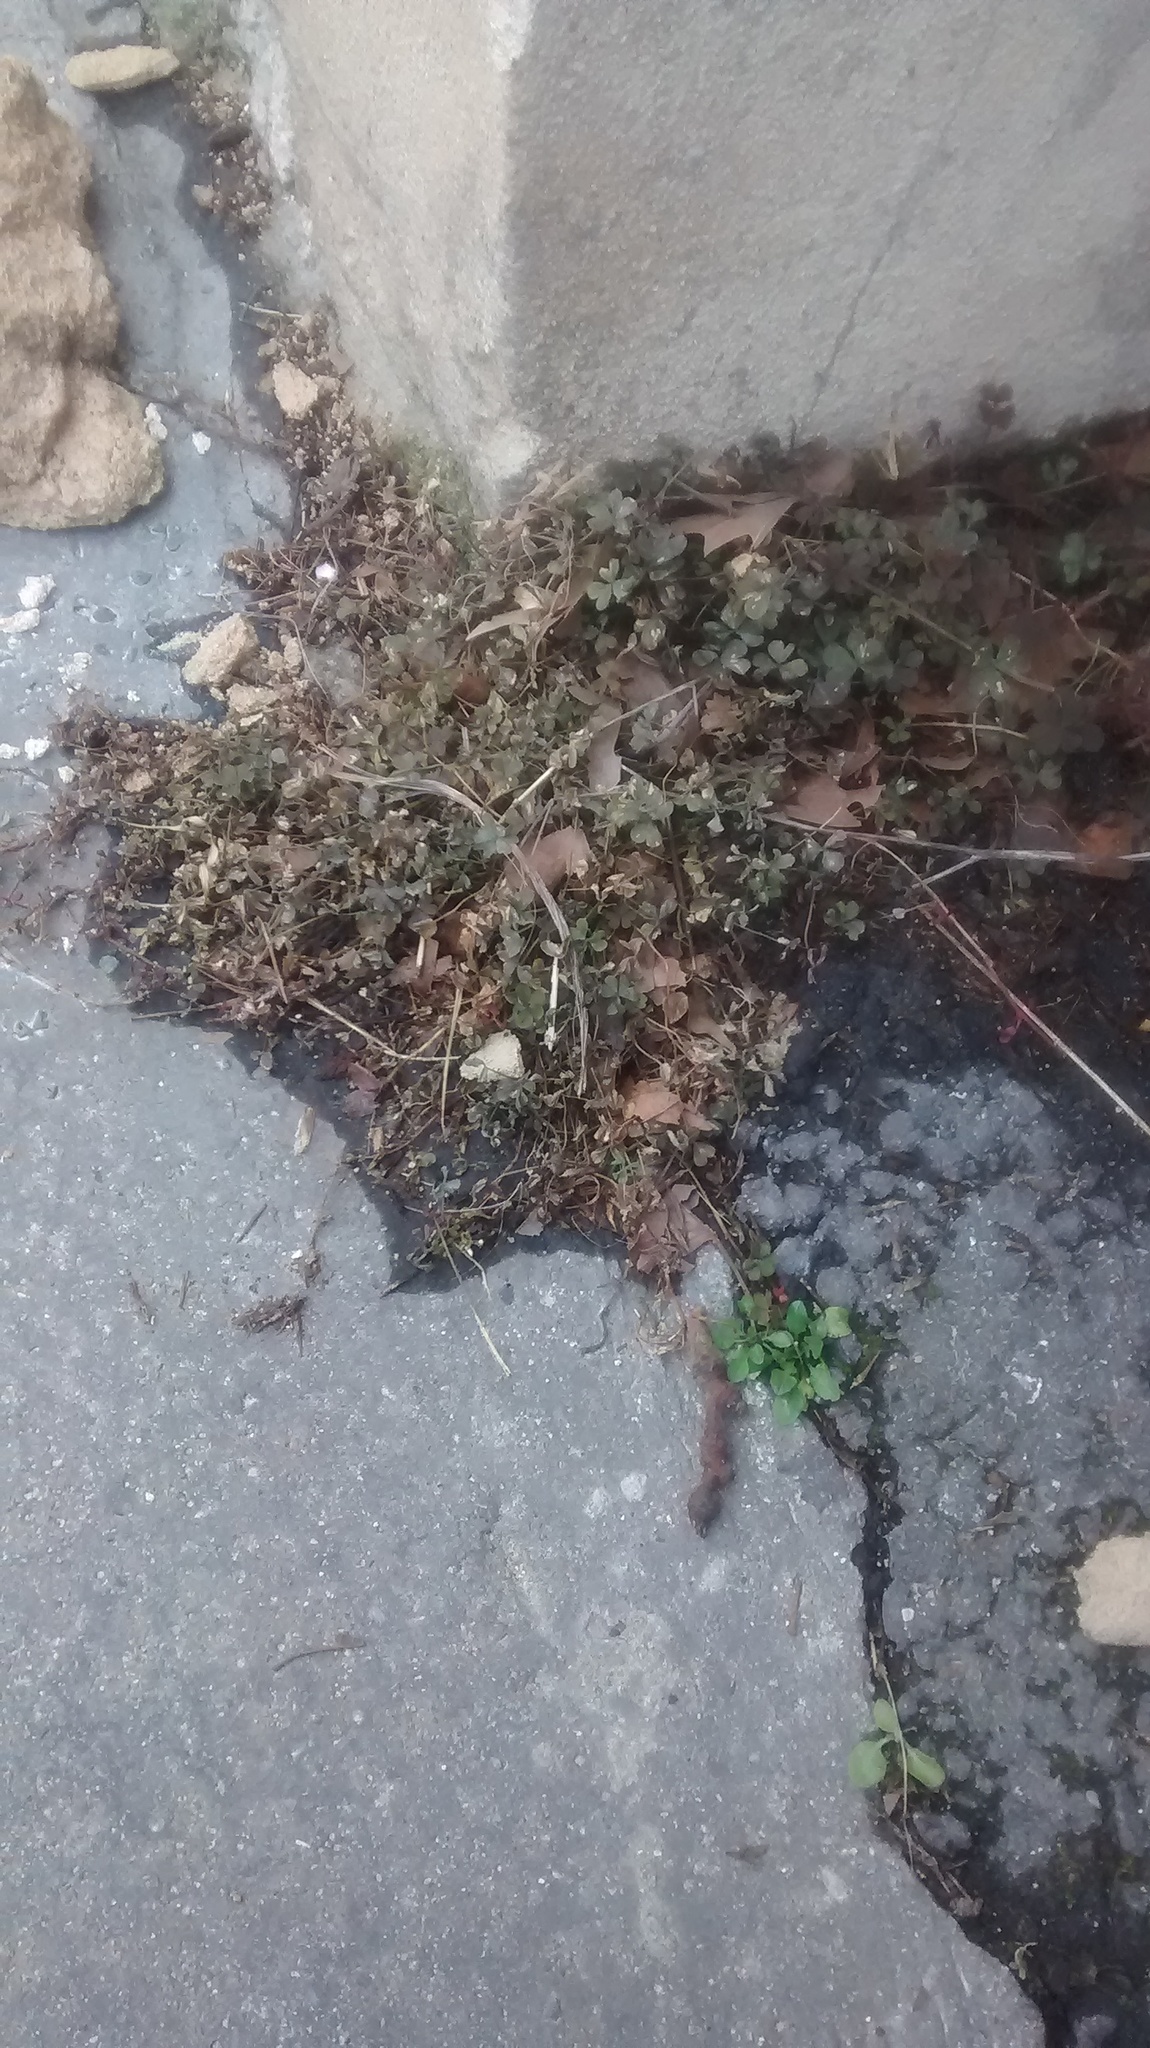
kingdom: Plantae
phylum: Tracheophyta
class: Magnoliopsida
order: Oxalidales
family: Oxalidaceae
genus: Oxalis
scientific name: Oxalis corniculata
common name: Procumbent yellow-sorrel
